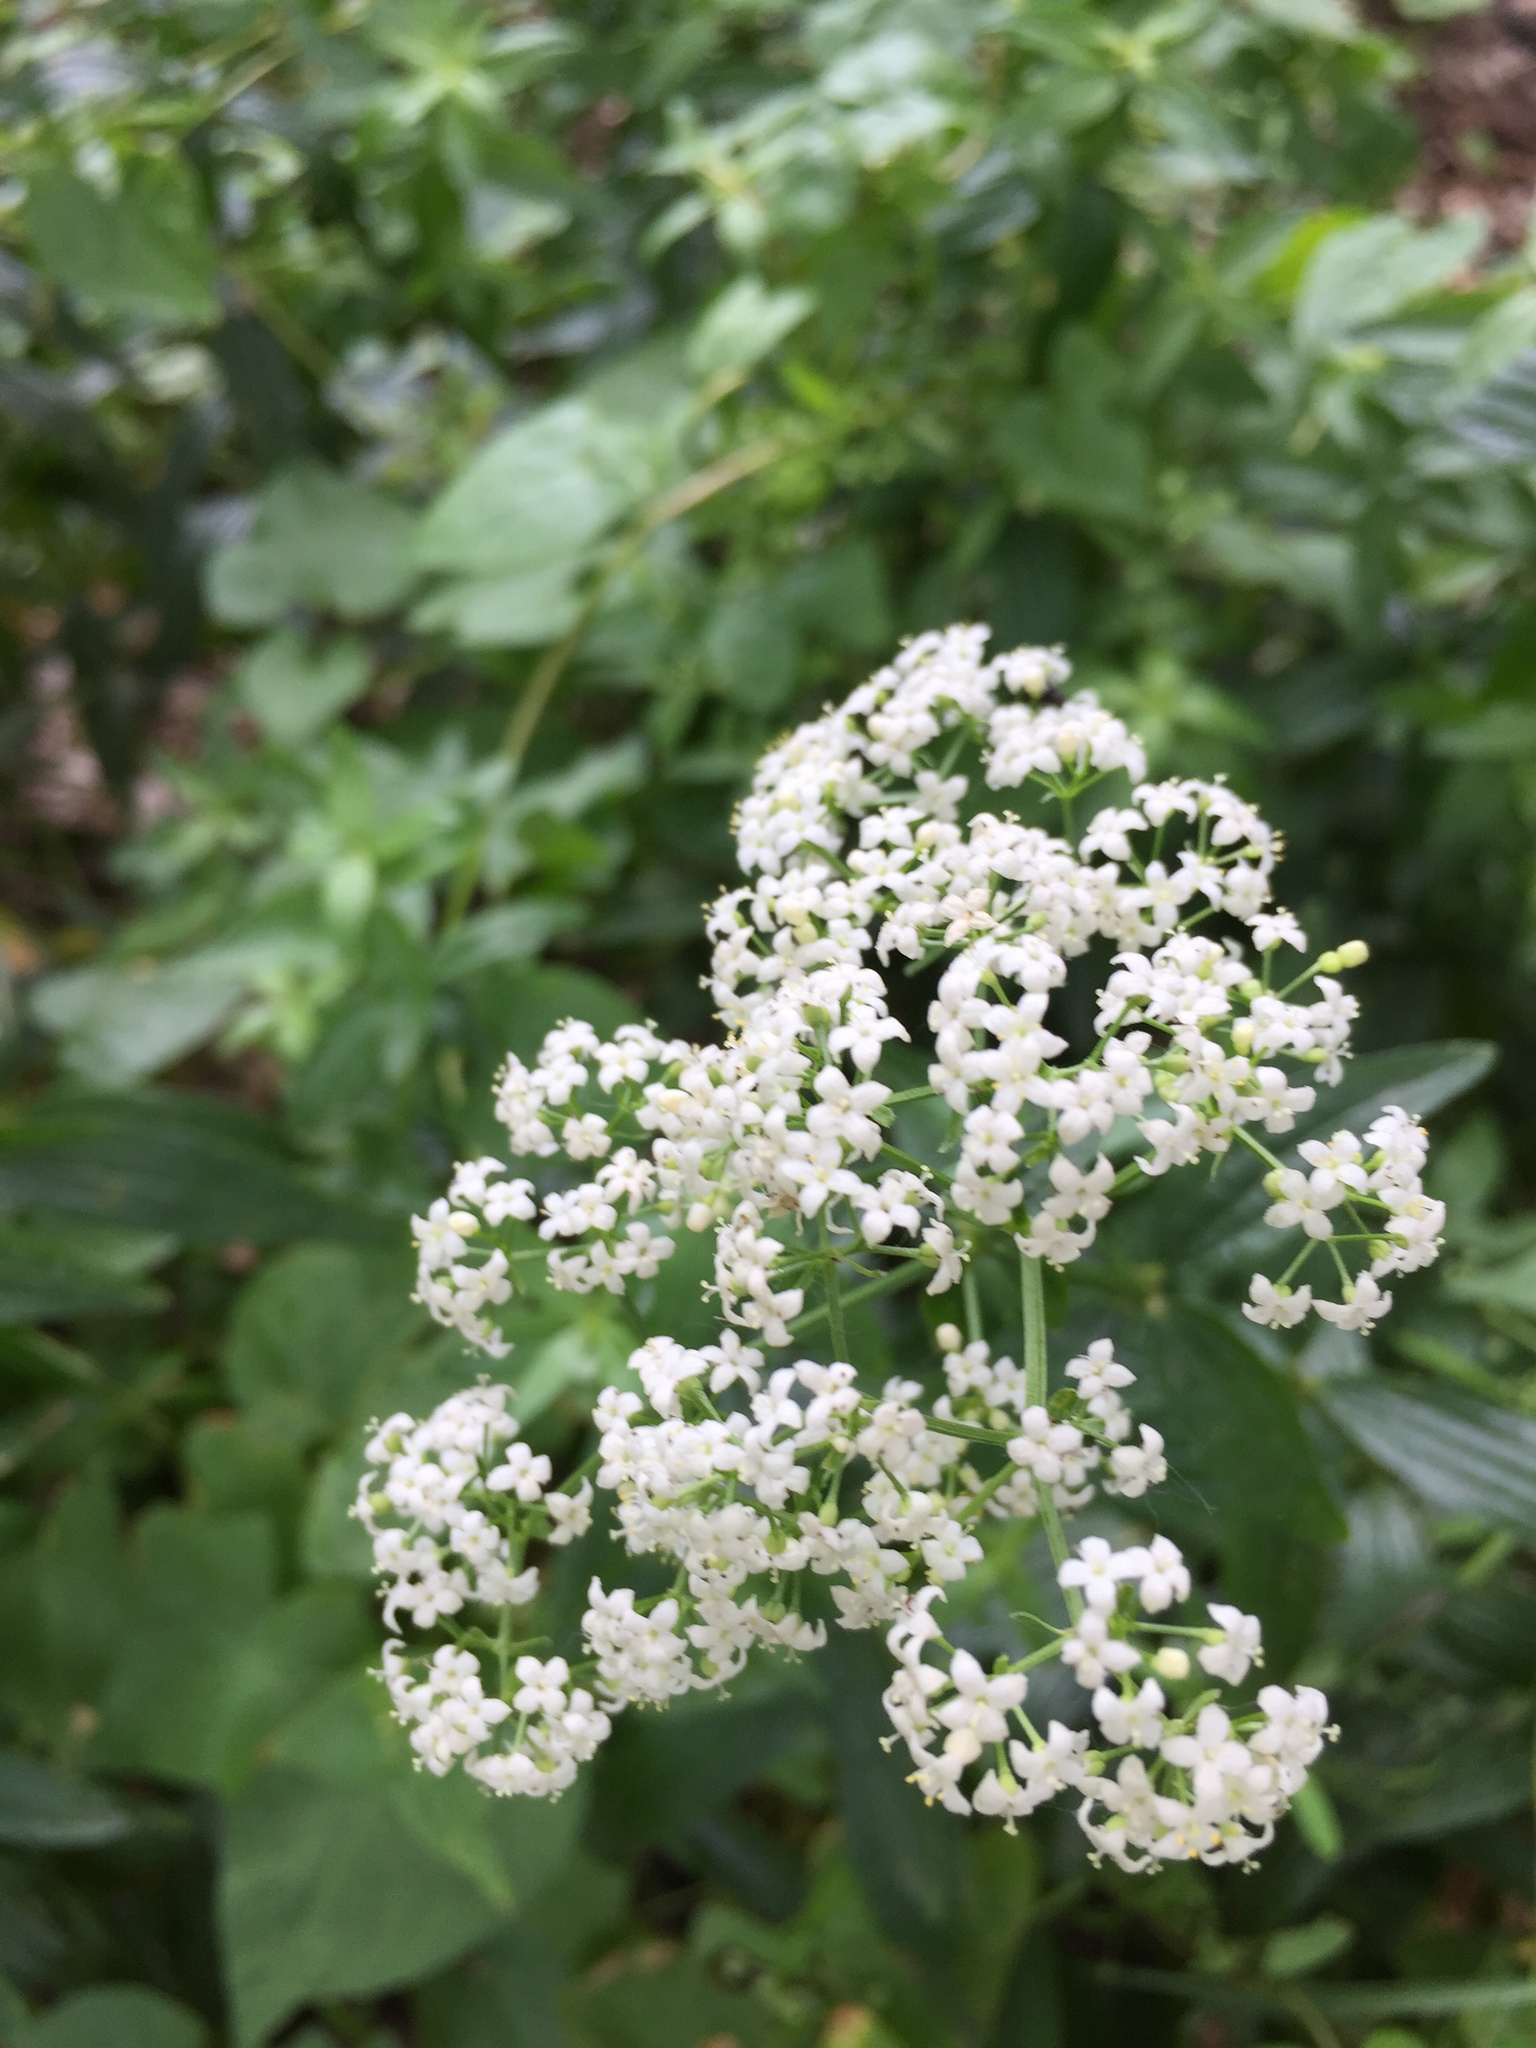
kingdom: Plantae
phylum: Tracheophyta
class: Magnoliopsida
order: Gentianales
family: Rubiaceae
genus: Galium
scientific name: Galium boreale
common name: Northern bedstraw
